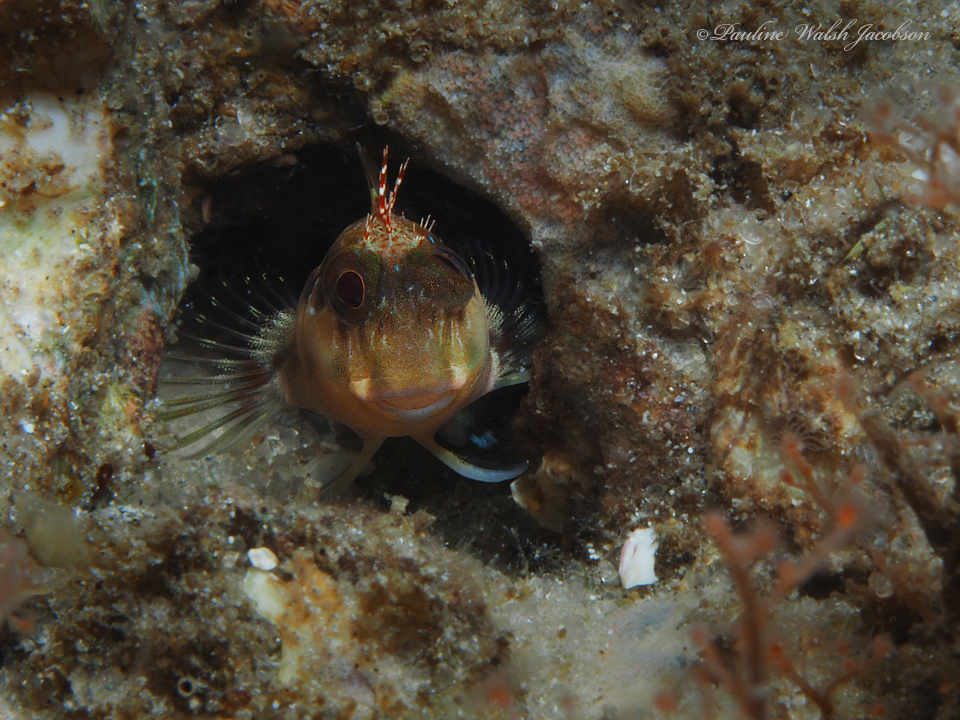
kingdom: Animalia
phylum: Chordata
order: Perciformes
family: Blenniidae
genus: Scartella
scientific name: Scartella cristata
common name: Molly miller
